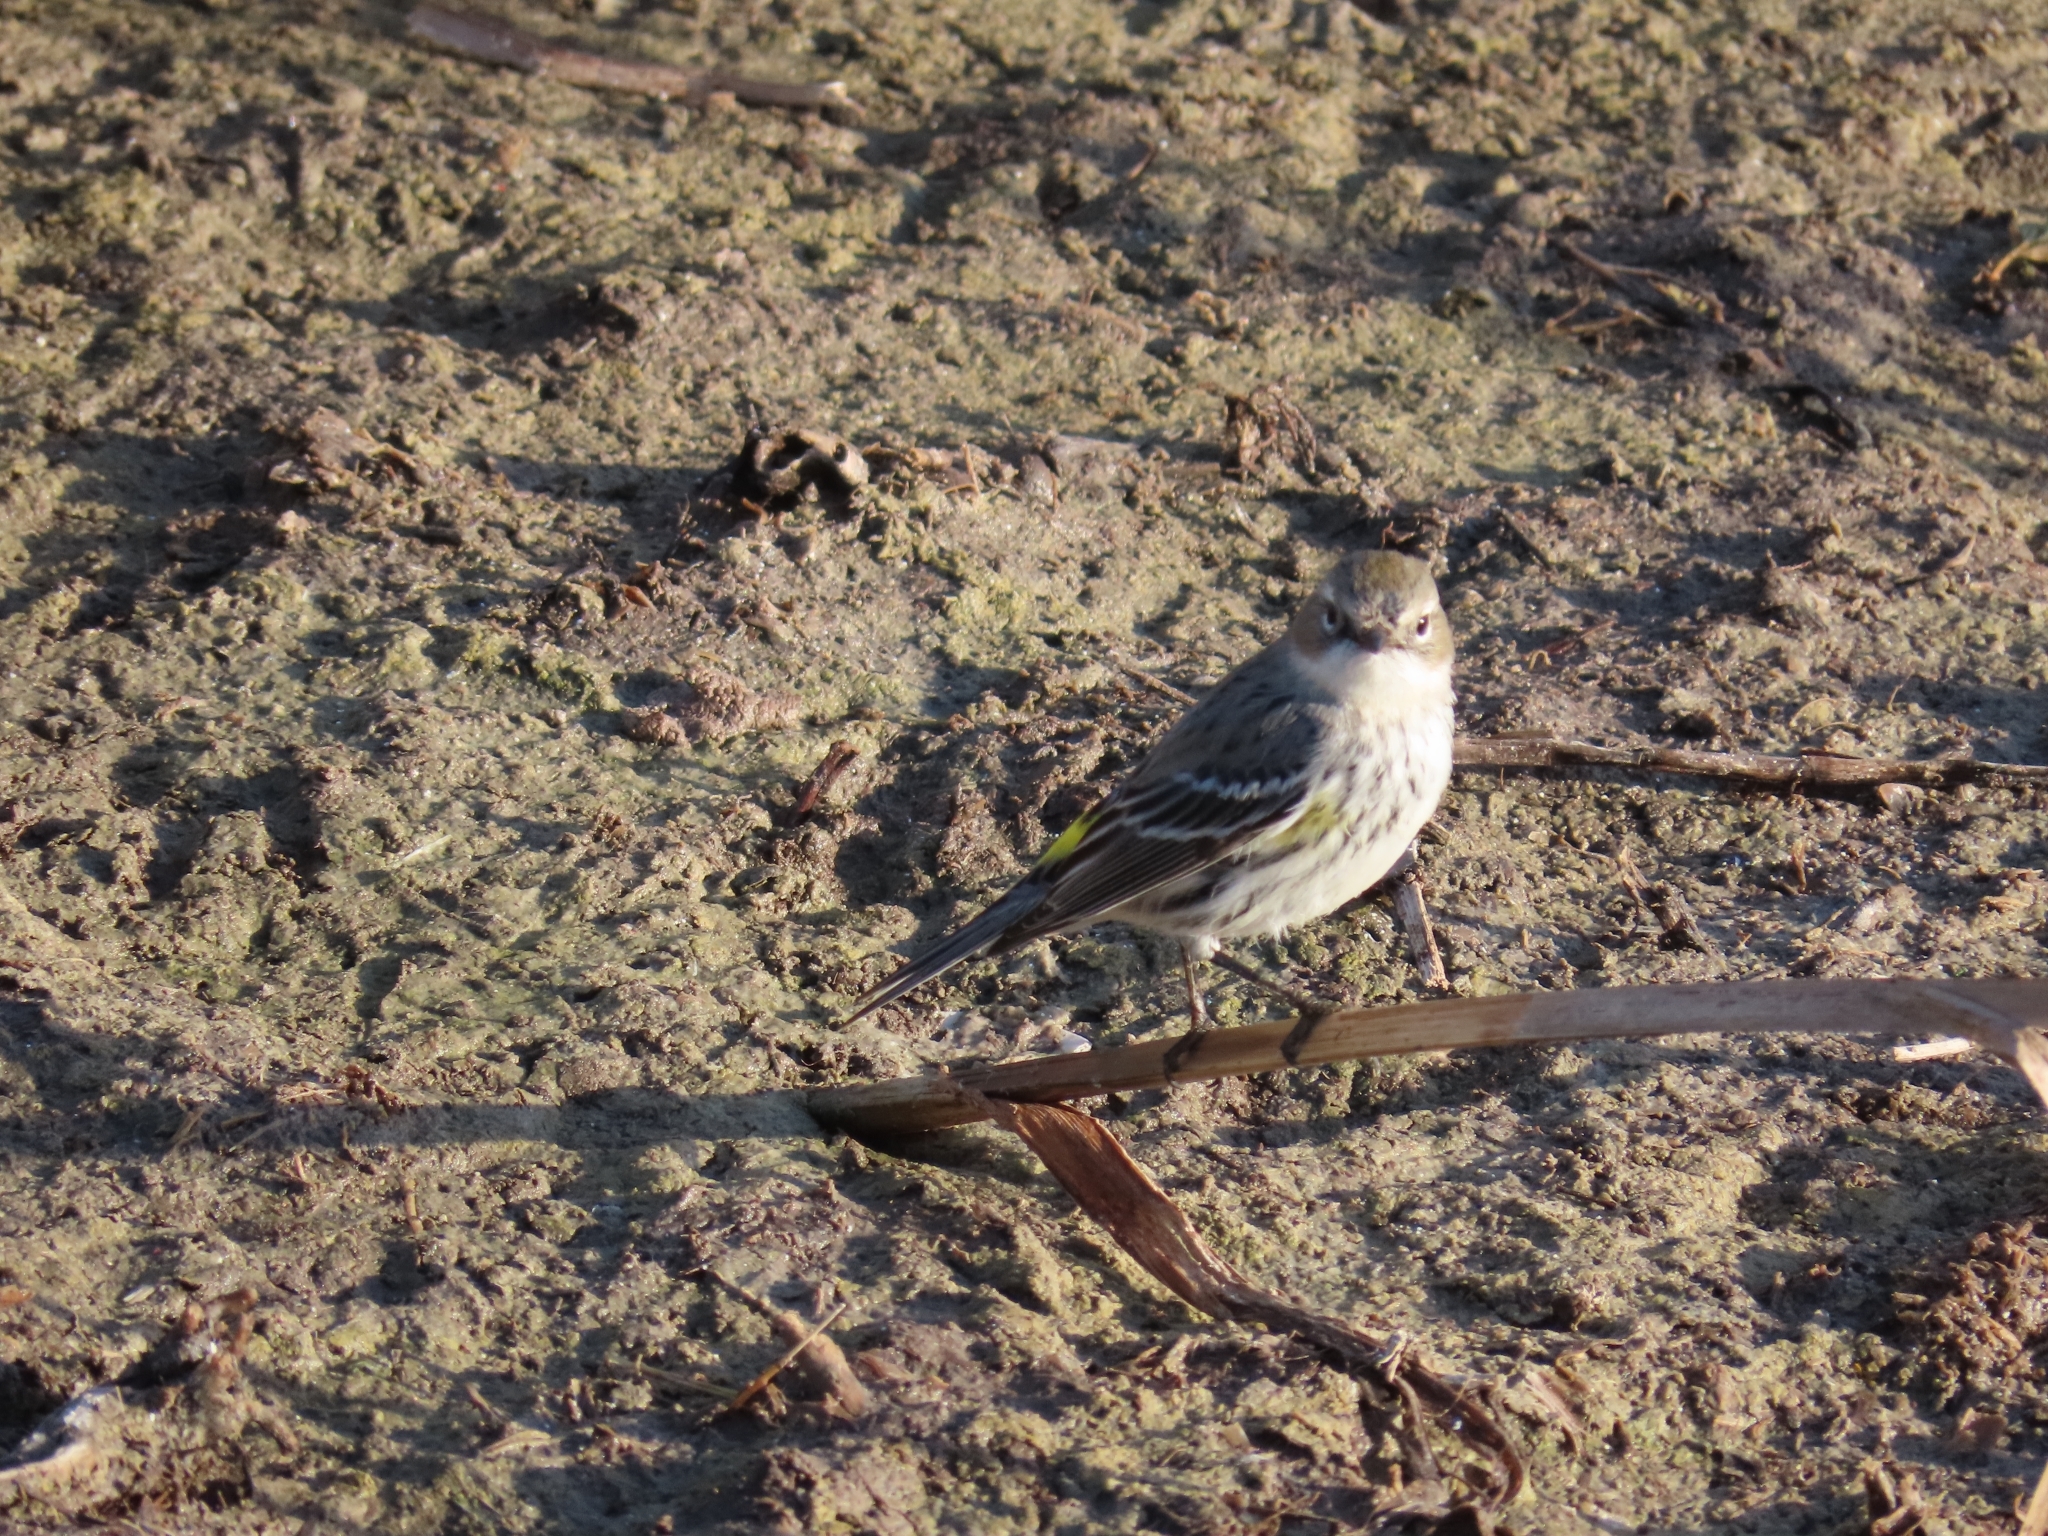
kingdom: Animalia
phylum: Chordata
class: Aves
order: Passeriformes
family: Parulidae
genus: Setophaga
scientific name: Setophaga coronata
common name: Myrtle warbler
